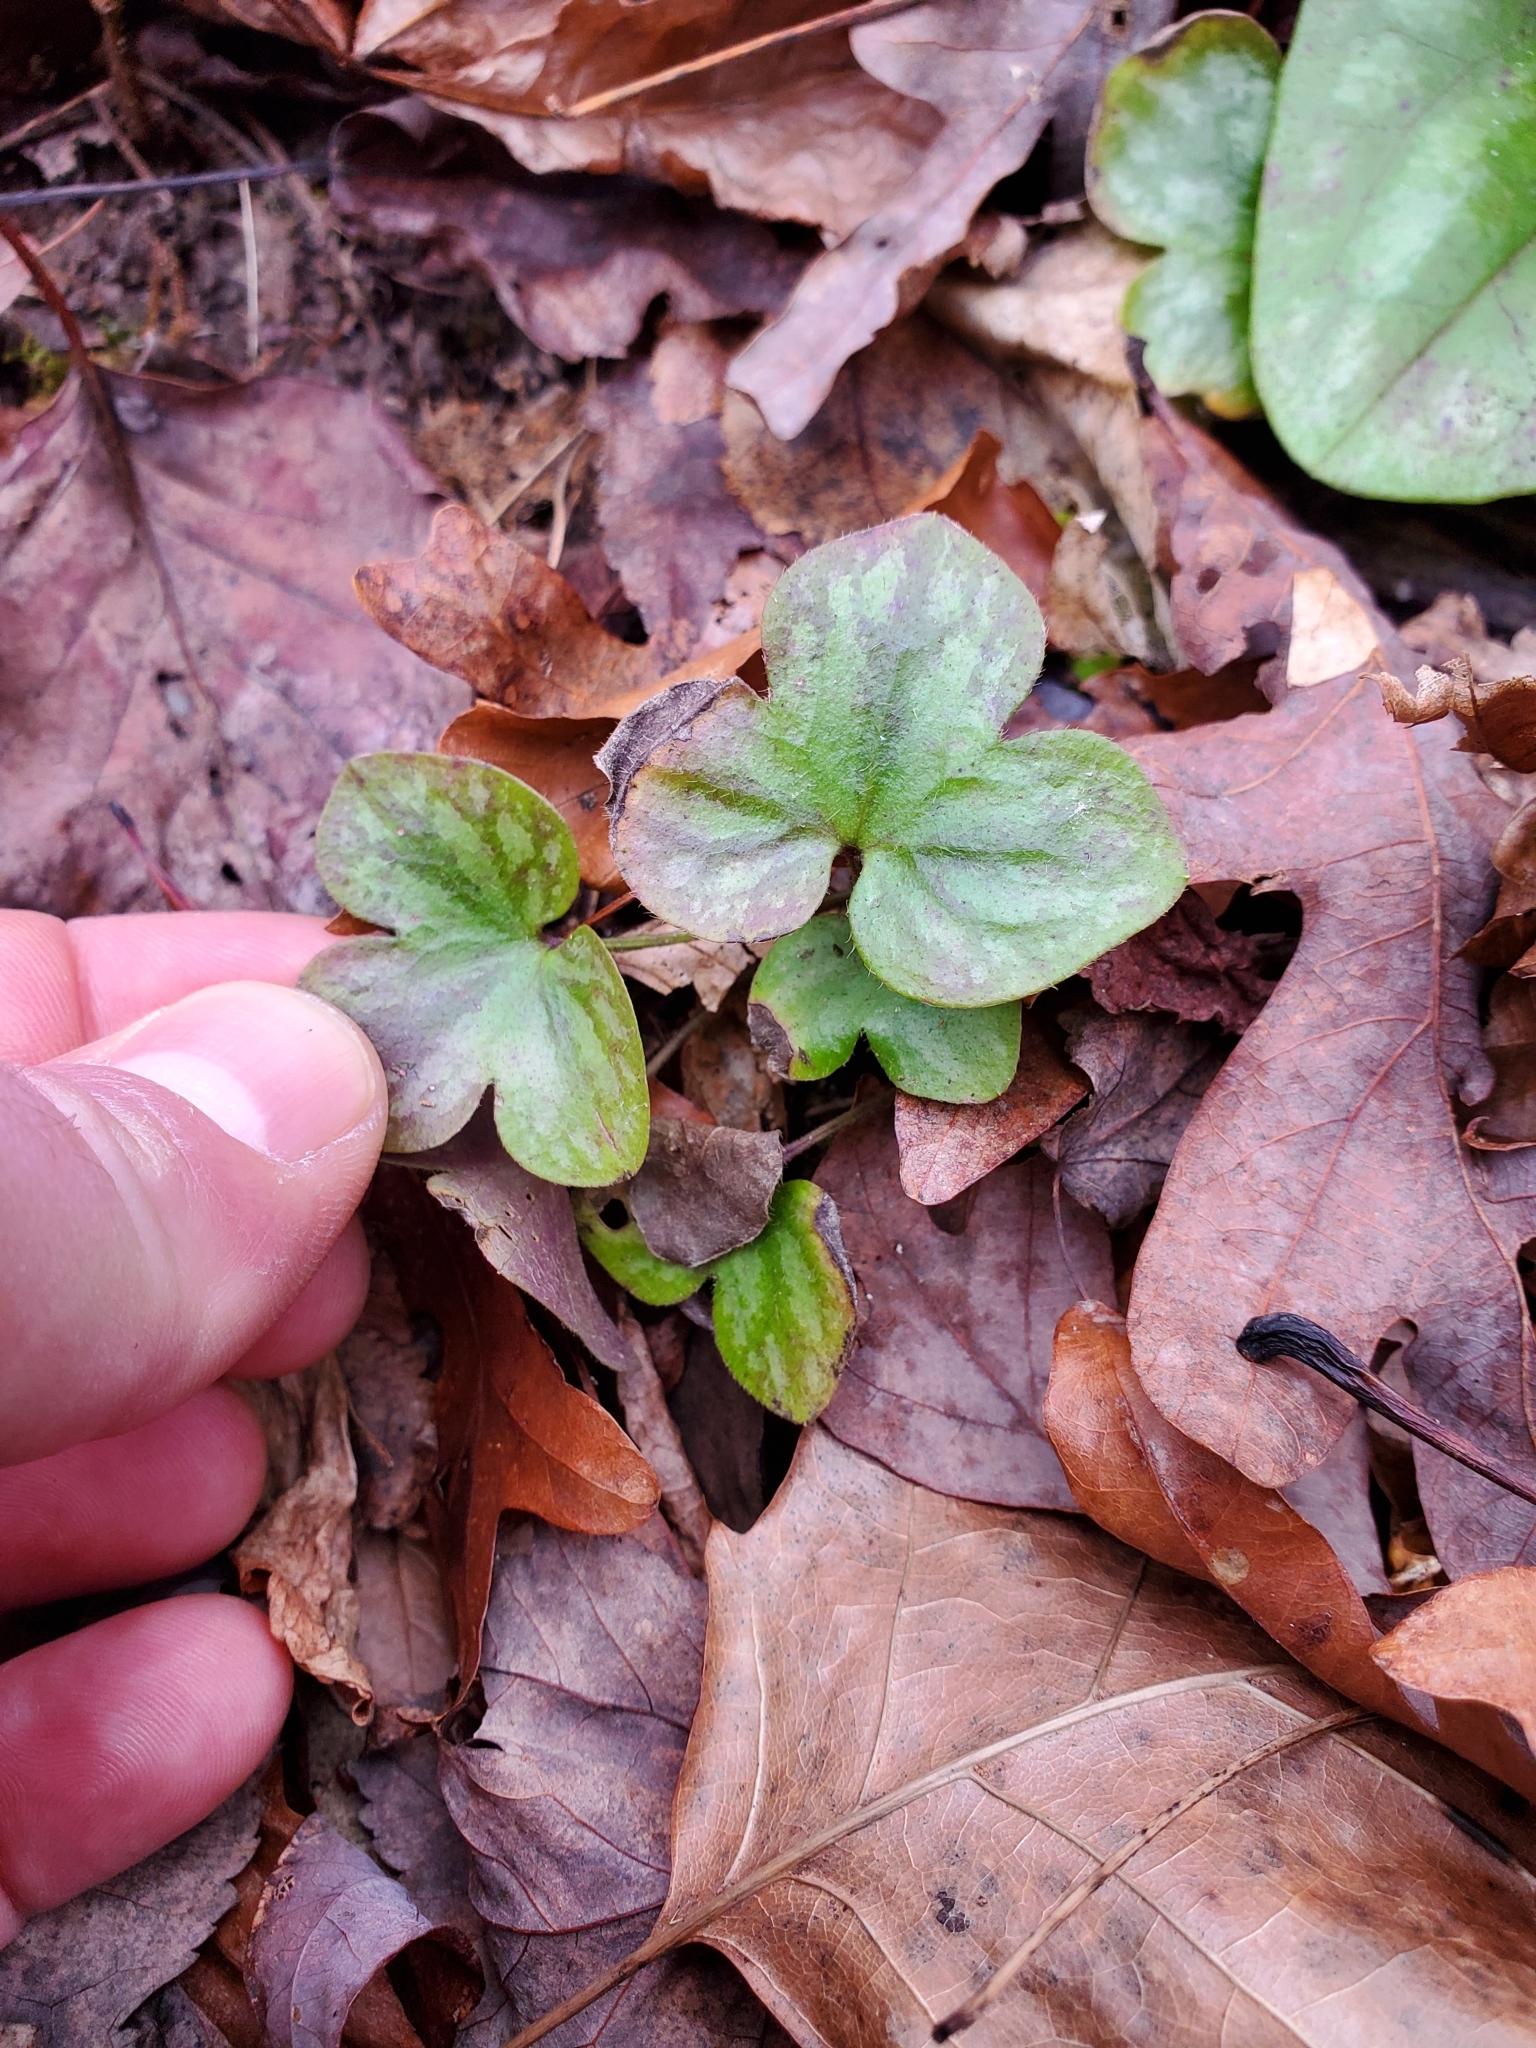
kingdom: Plantae
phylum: Tracheophyta
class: Magnoliopsida
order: Ranunculales
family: Ranunculaceae
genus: Hepatica
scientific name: Hepatica americana
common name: American hepatica
